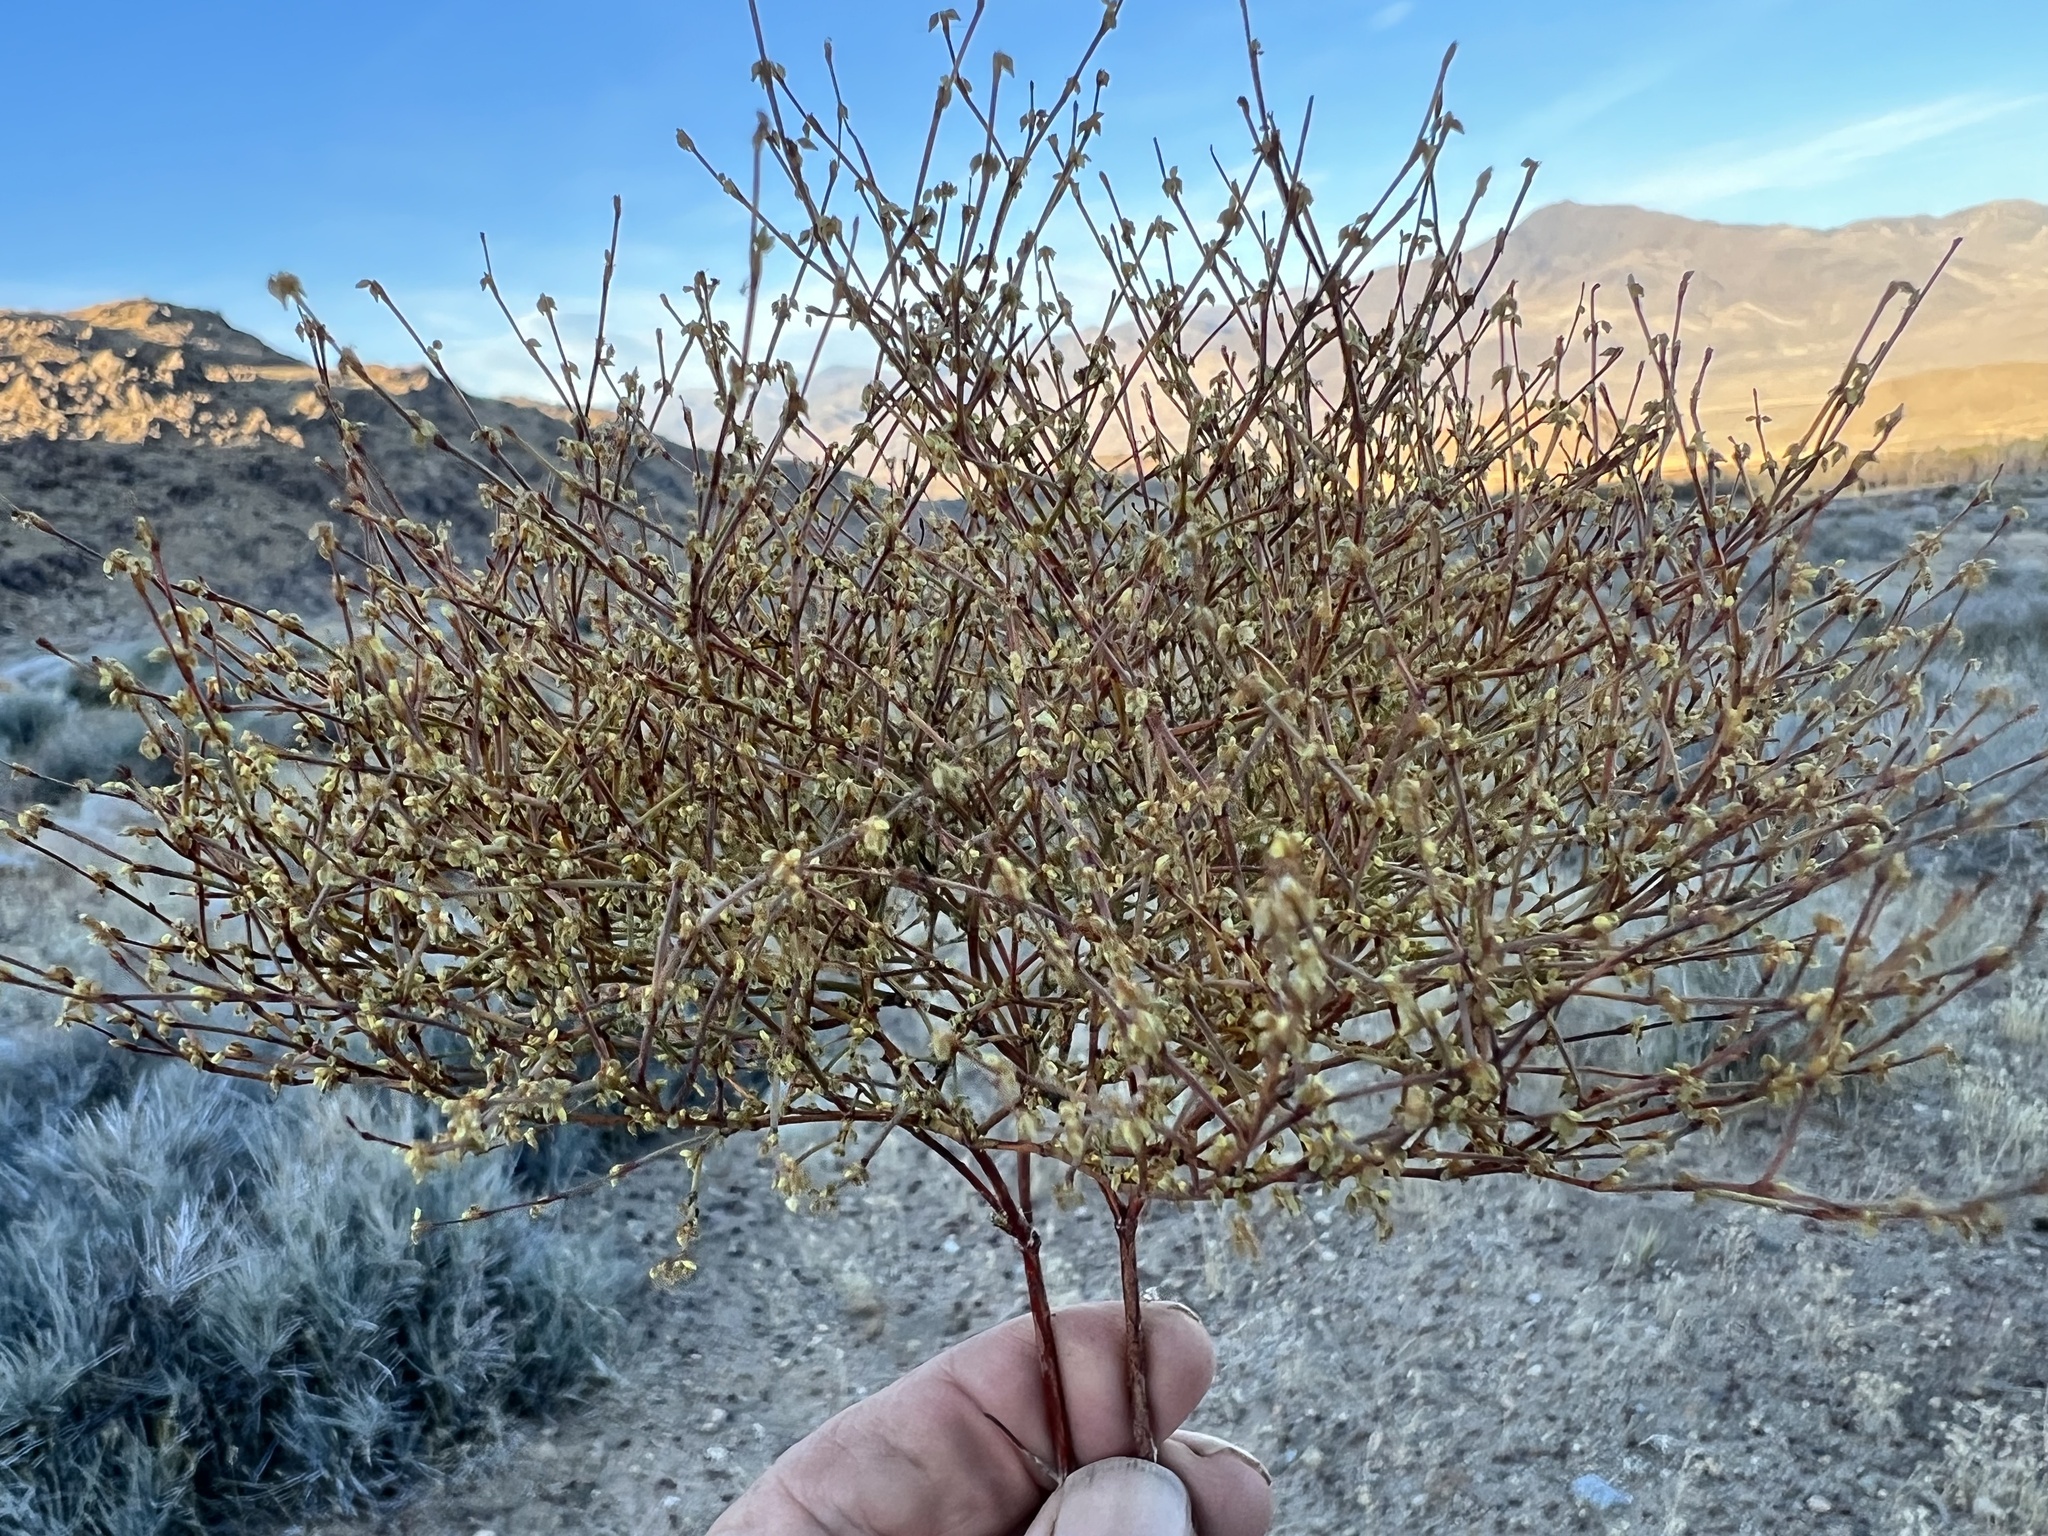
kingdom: Plantae
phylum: Tracheophyta
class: Magnoliopsida
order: Caryophyllales
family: Polygonaceae
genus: Eriogonum
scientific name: Eriogonum brachyanthum
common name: Short-flower wild buckwheat
